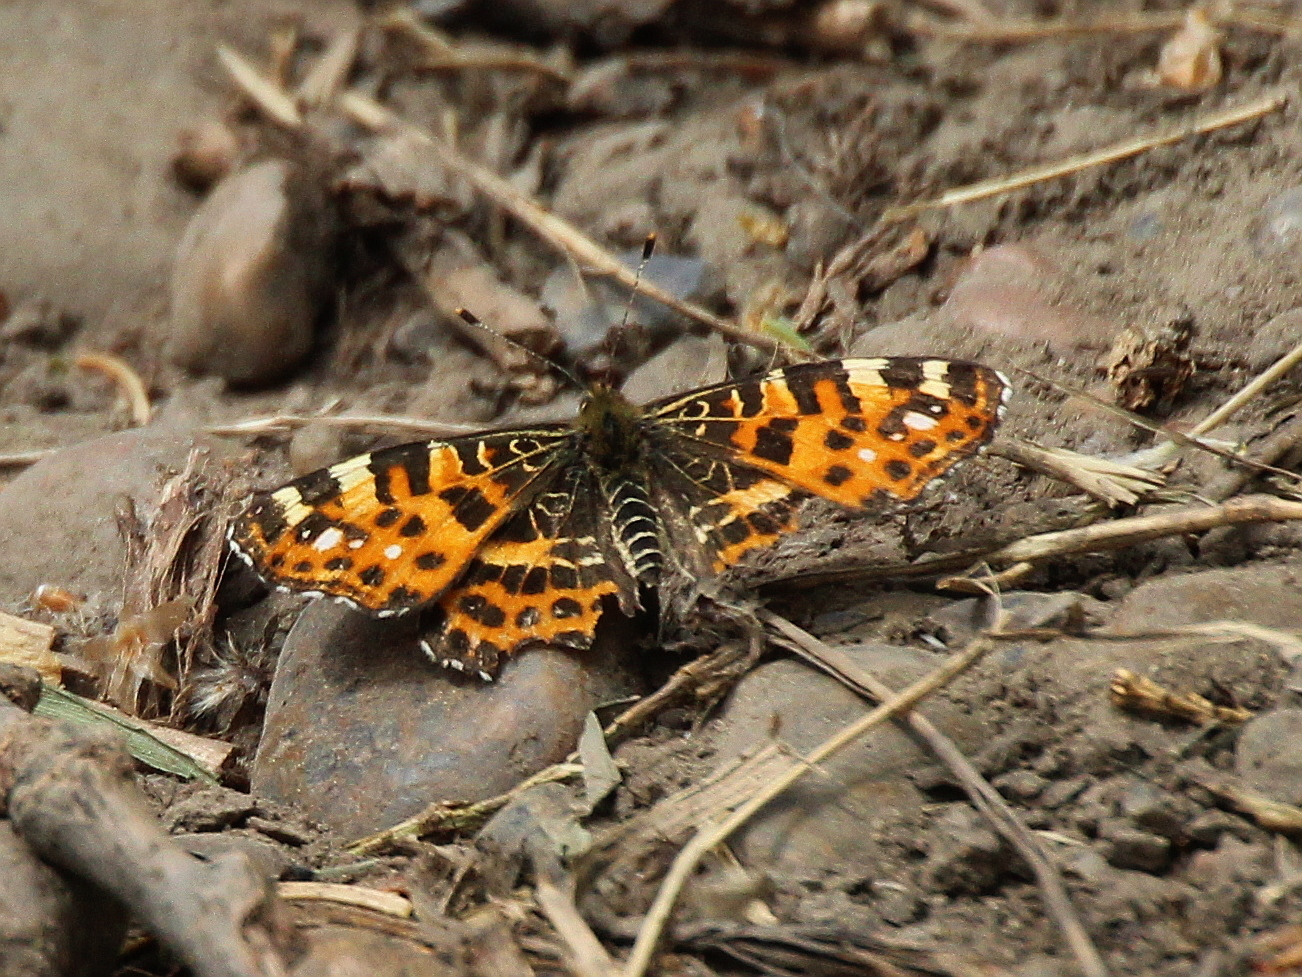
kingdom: Animalia
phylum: Arthropoda
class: Insecta
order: Lepidoptera
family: Nymphalidae
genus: Araschnia
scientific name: Araschnia levana
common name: Map butterfly
